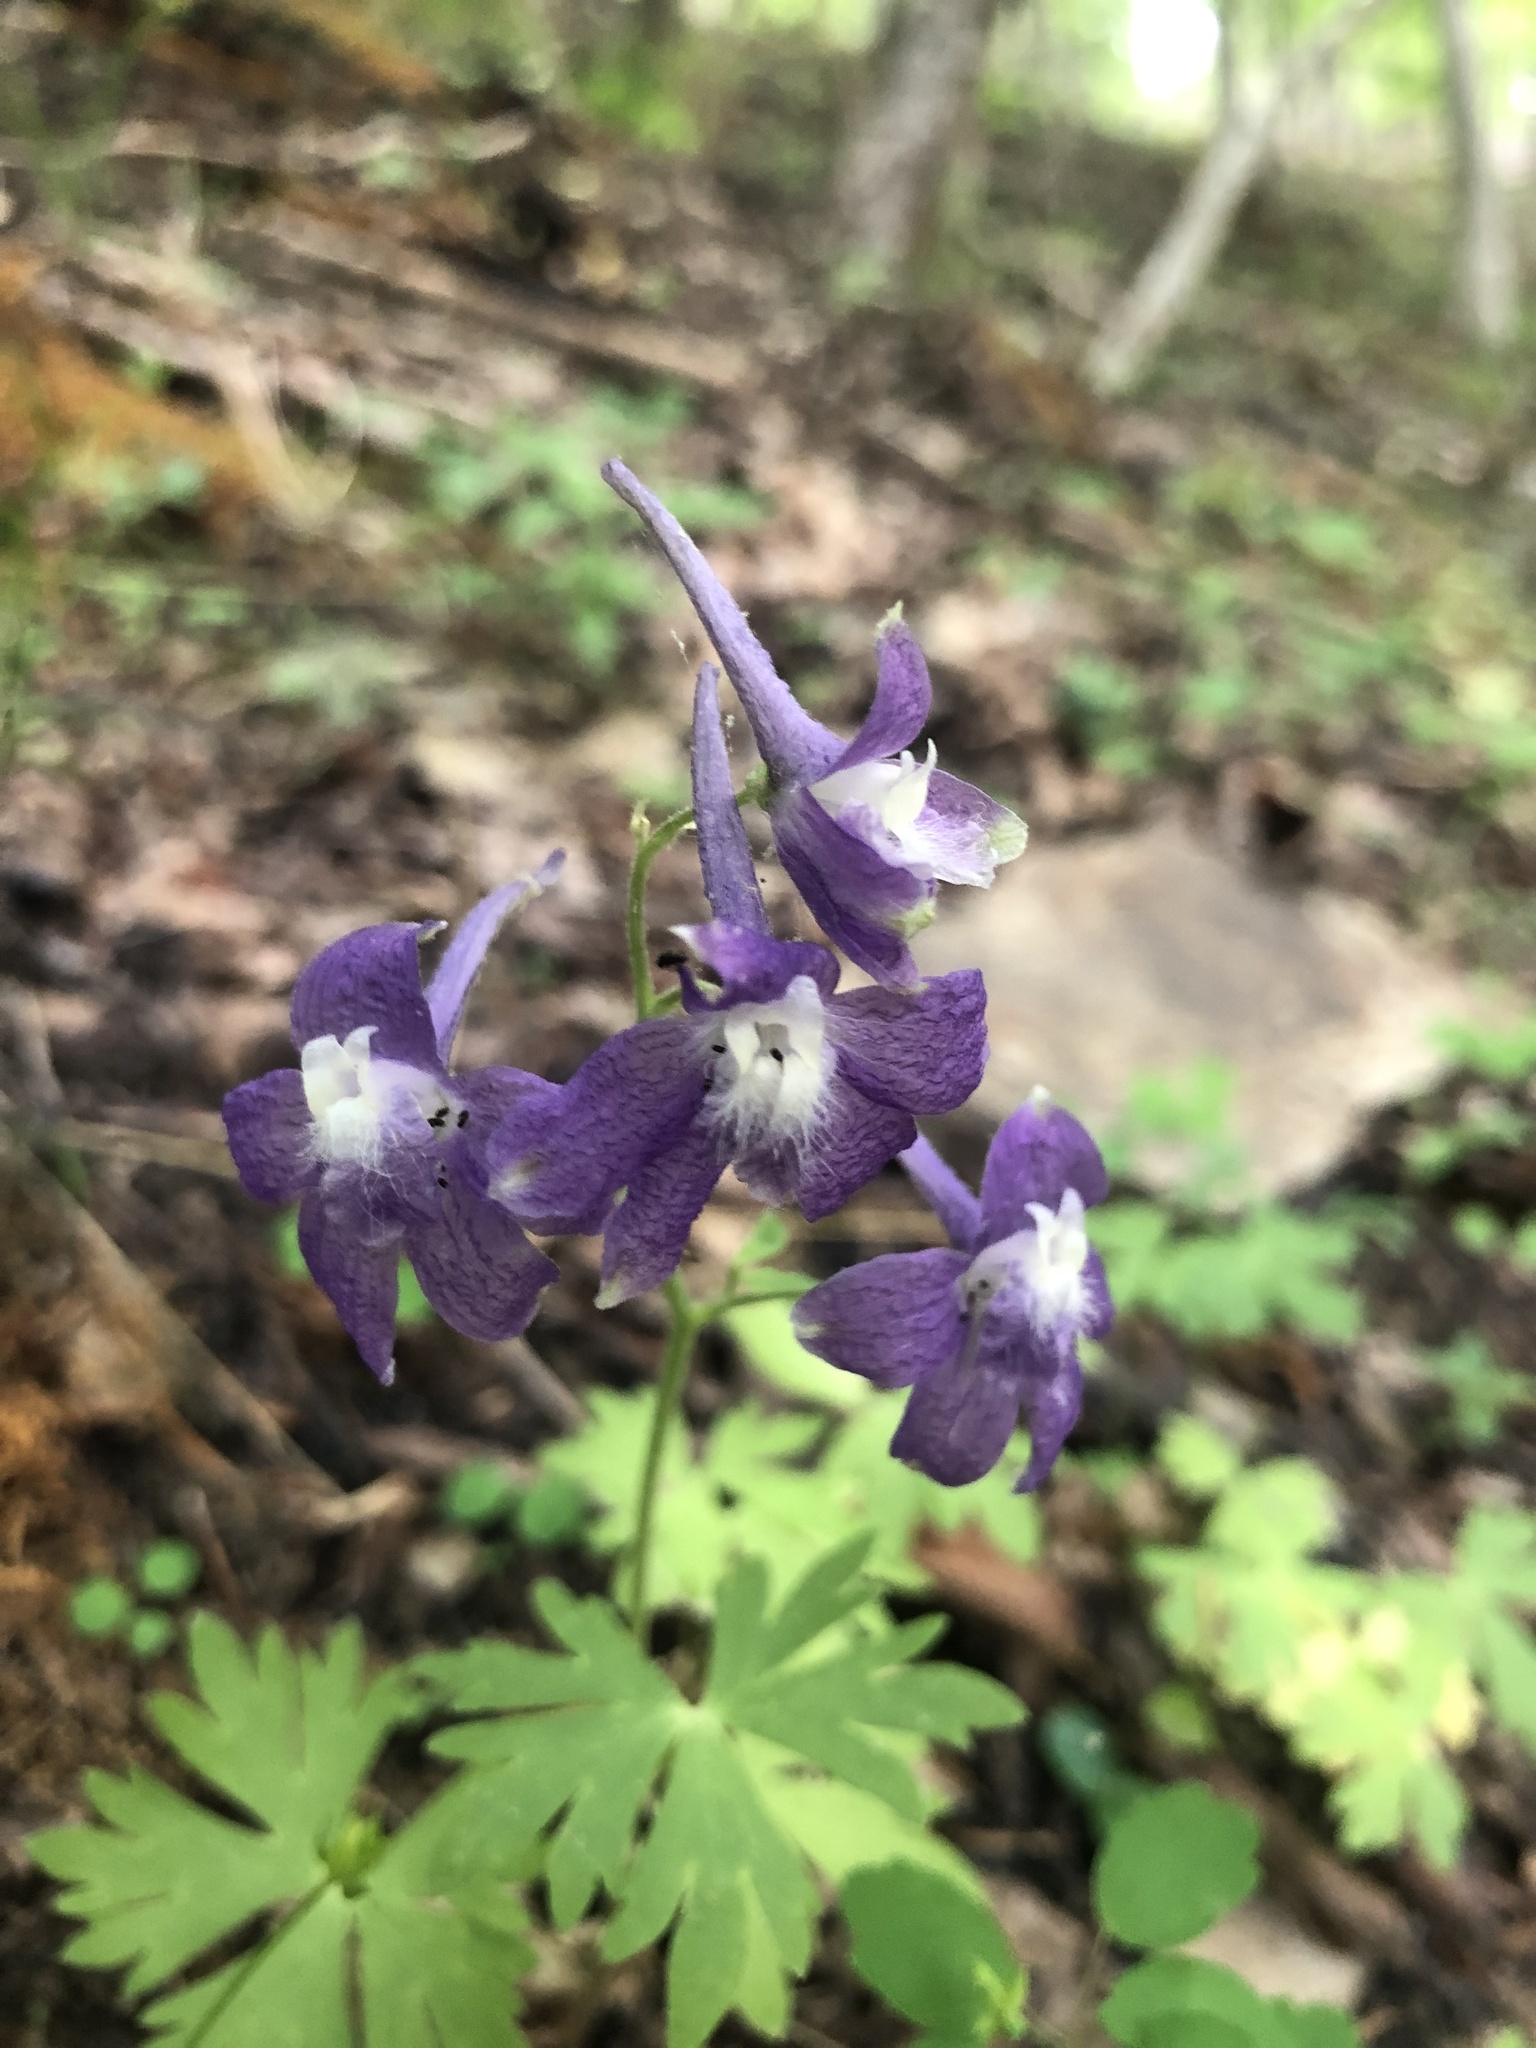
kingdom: Plantae
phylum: Tracheophyta
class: Magnoliopsida
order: Ranunculales
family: Ranunculaceae
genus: Delphinium
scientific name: Delphinium tricorne
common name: Dwarf larkspur
